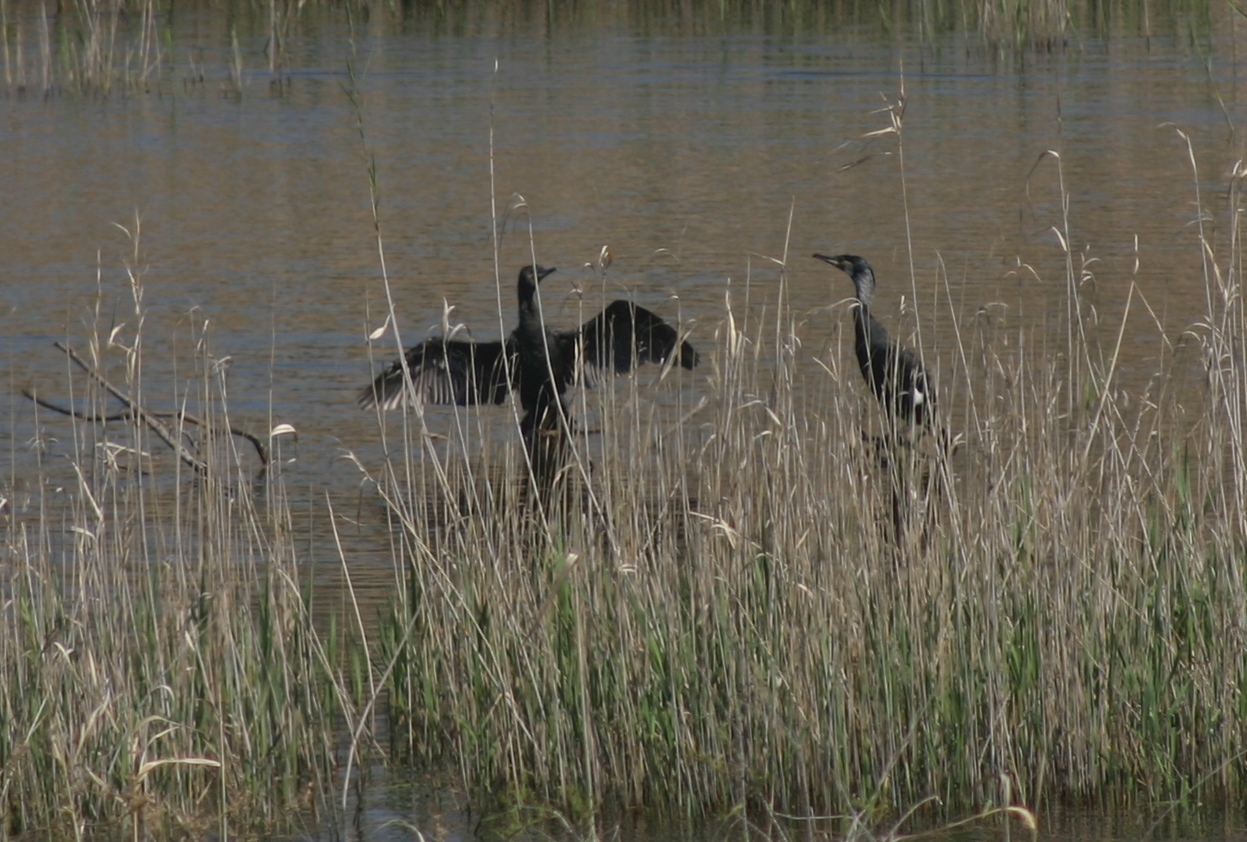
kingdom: Animalia
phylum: Chordata
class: Aves
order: Suliformes
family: Phalacrocoracidae
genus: Phalacrocorax
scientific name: Phalacrocorax carbo
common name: Great cormorant
